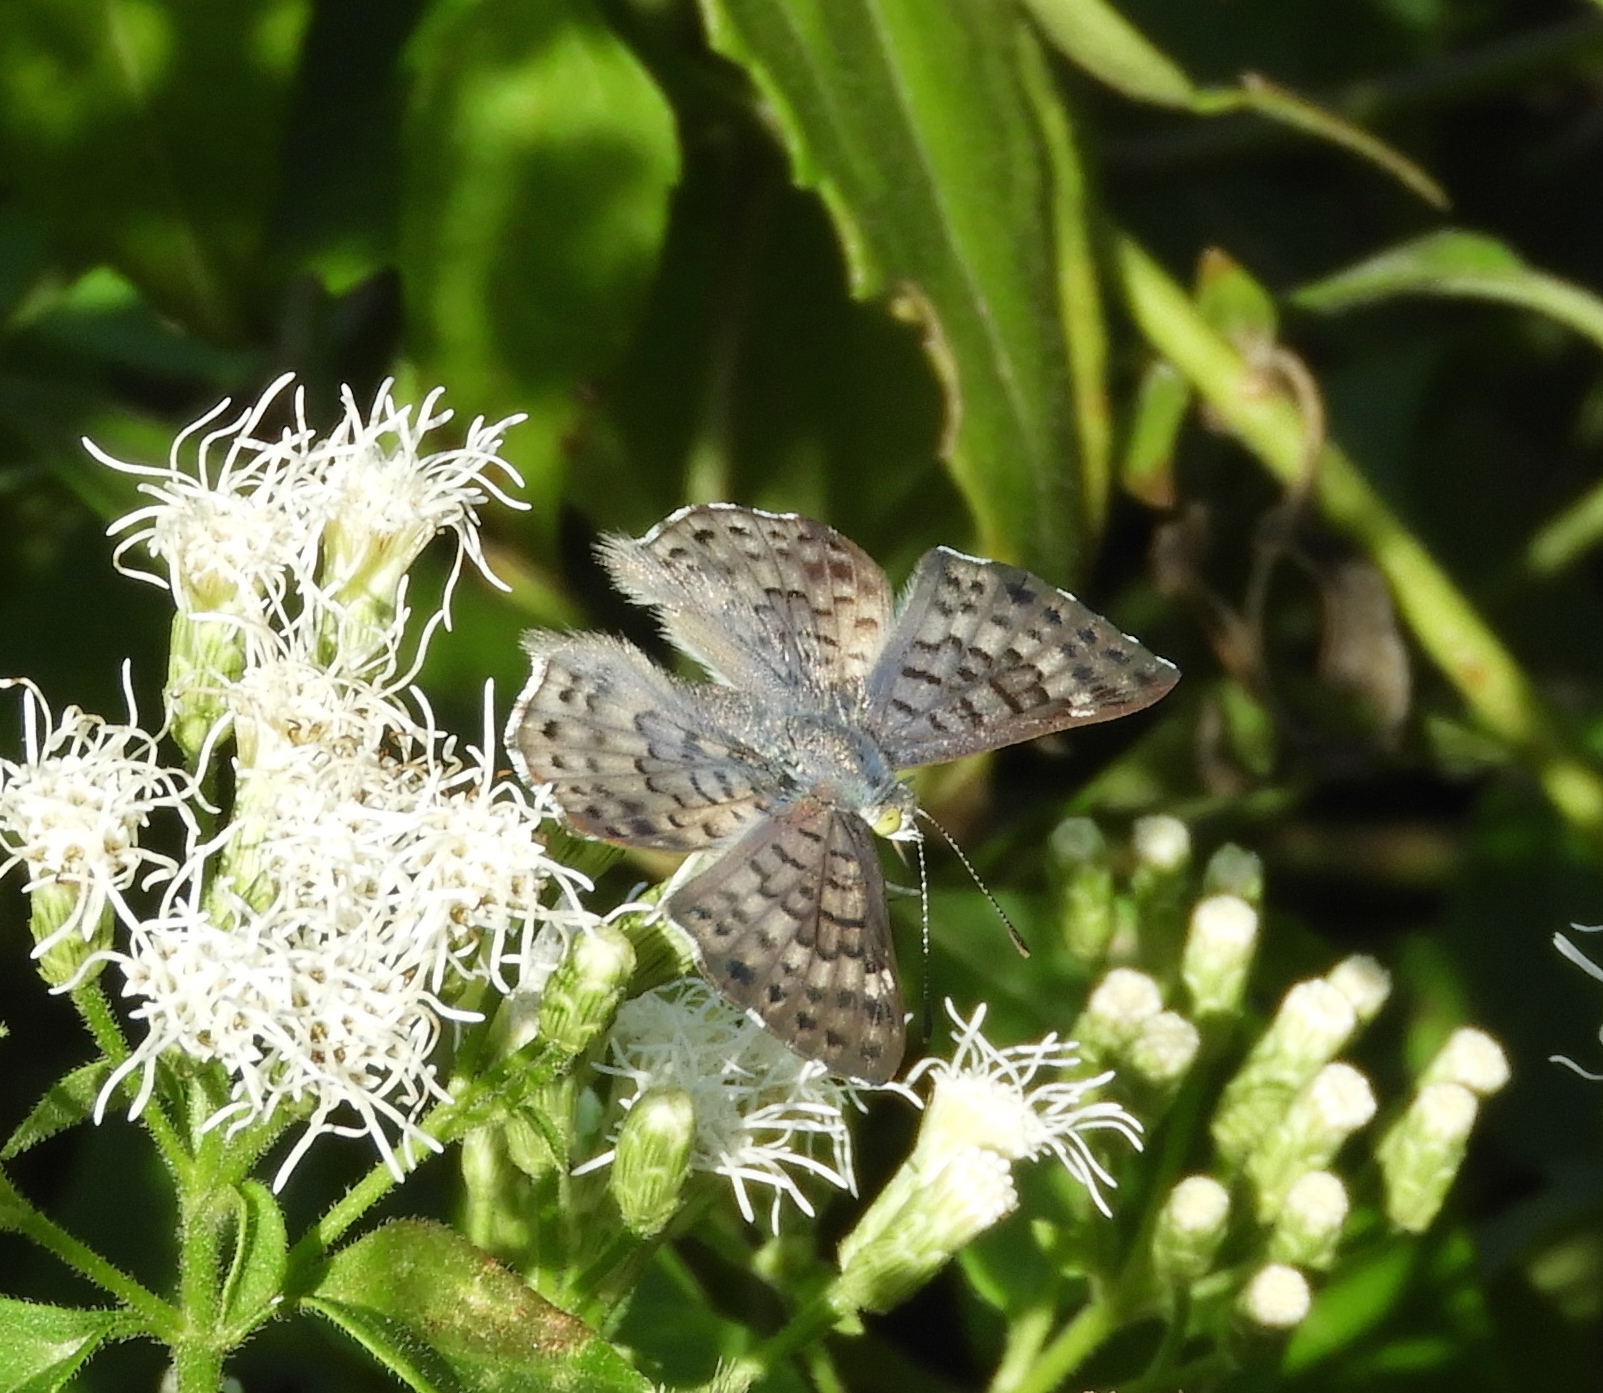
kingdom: Animalia
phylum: Arthropoda
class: Insecta
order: Lepidoptera
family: Riodinidae
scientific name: Riodinidae
